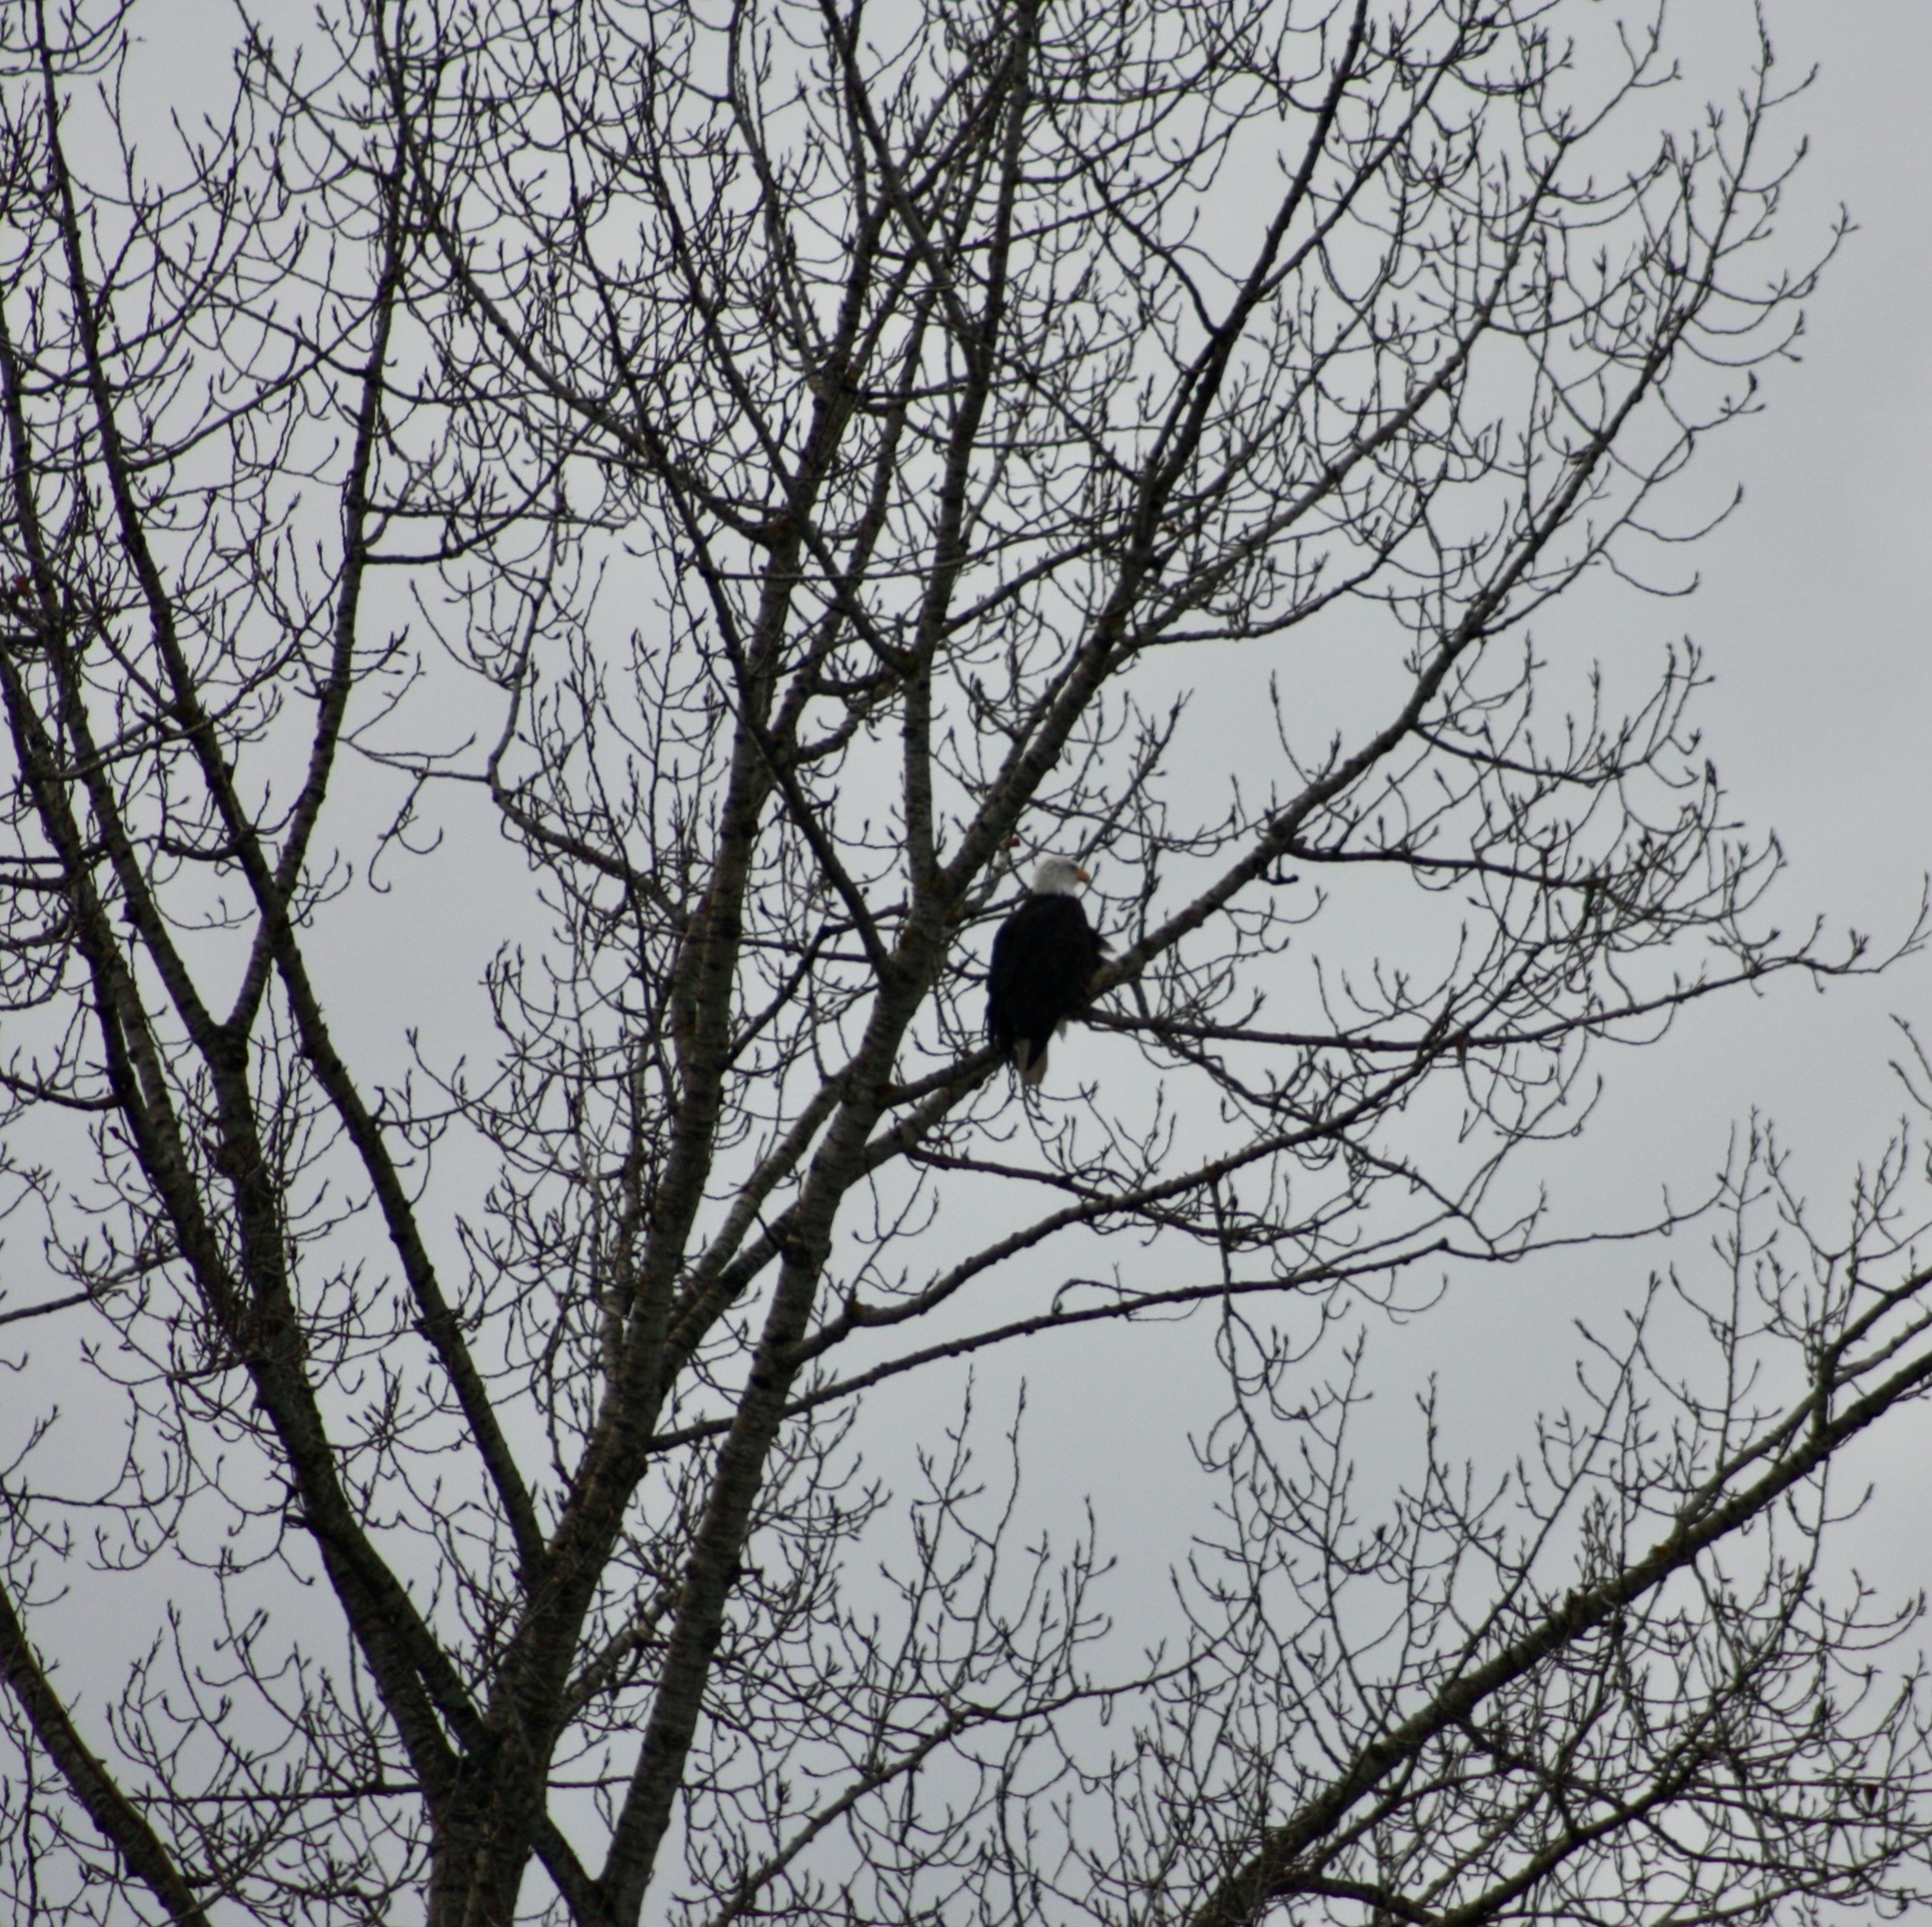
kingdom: Animalia
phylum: Chordata
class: Aves
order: Accipitriformes
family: Accipitridae
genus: Haliaeetus
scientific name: Haliaeetus leucocephalus
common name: Bald eagle
